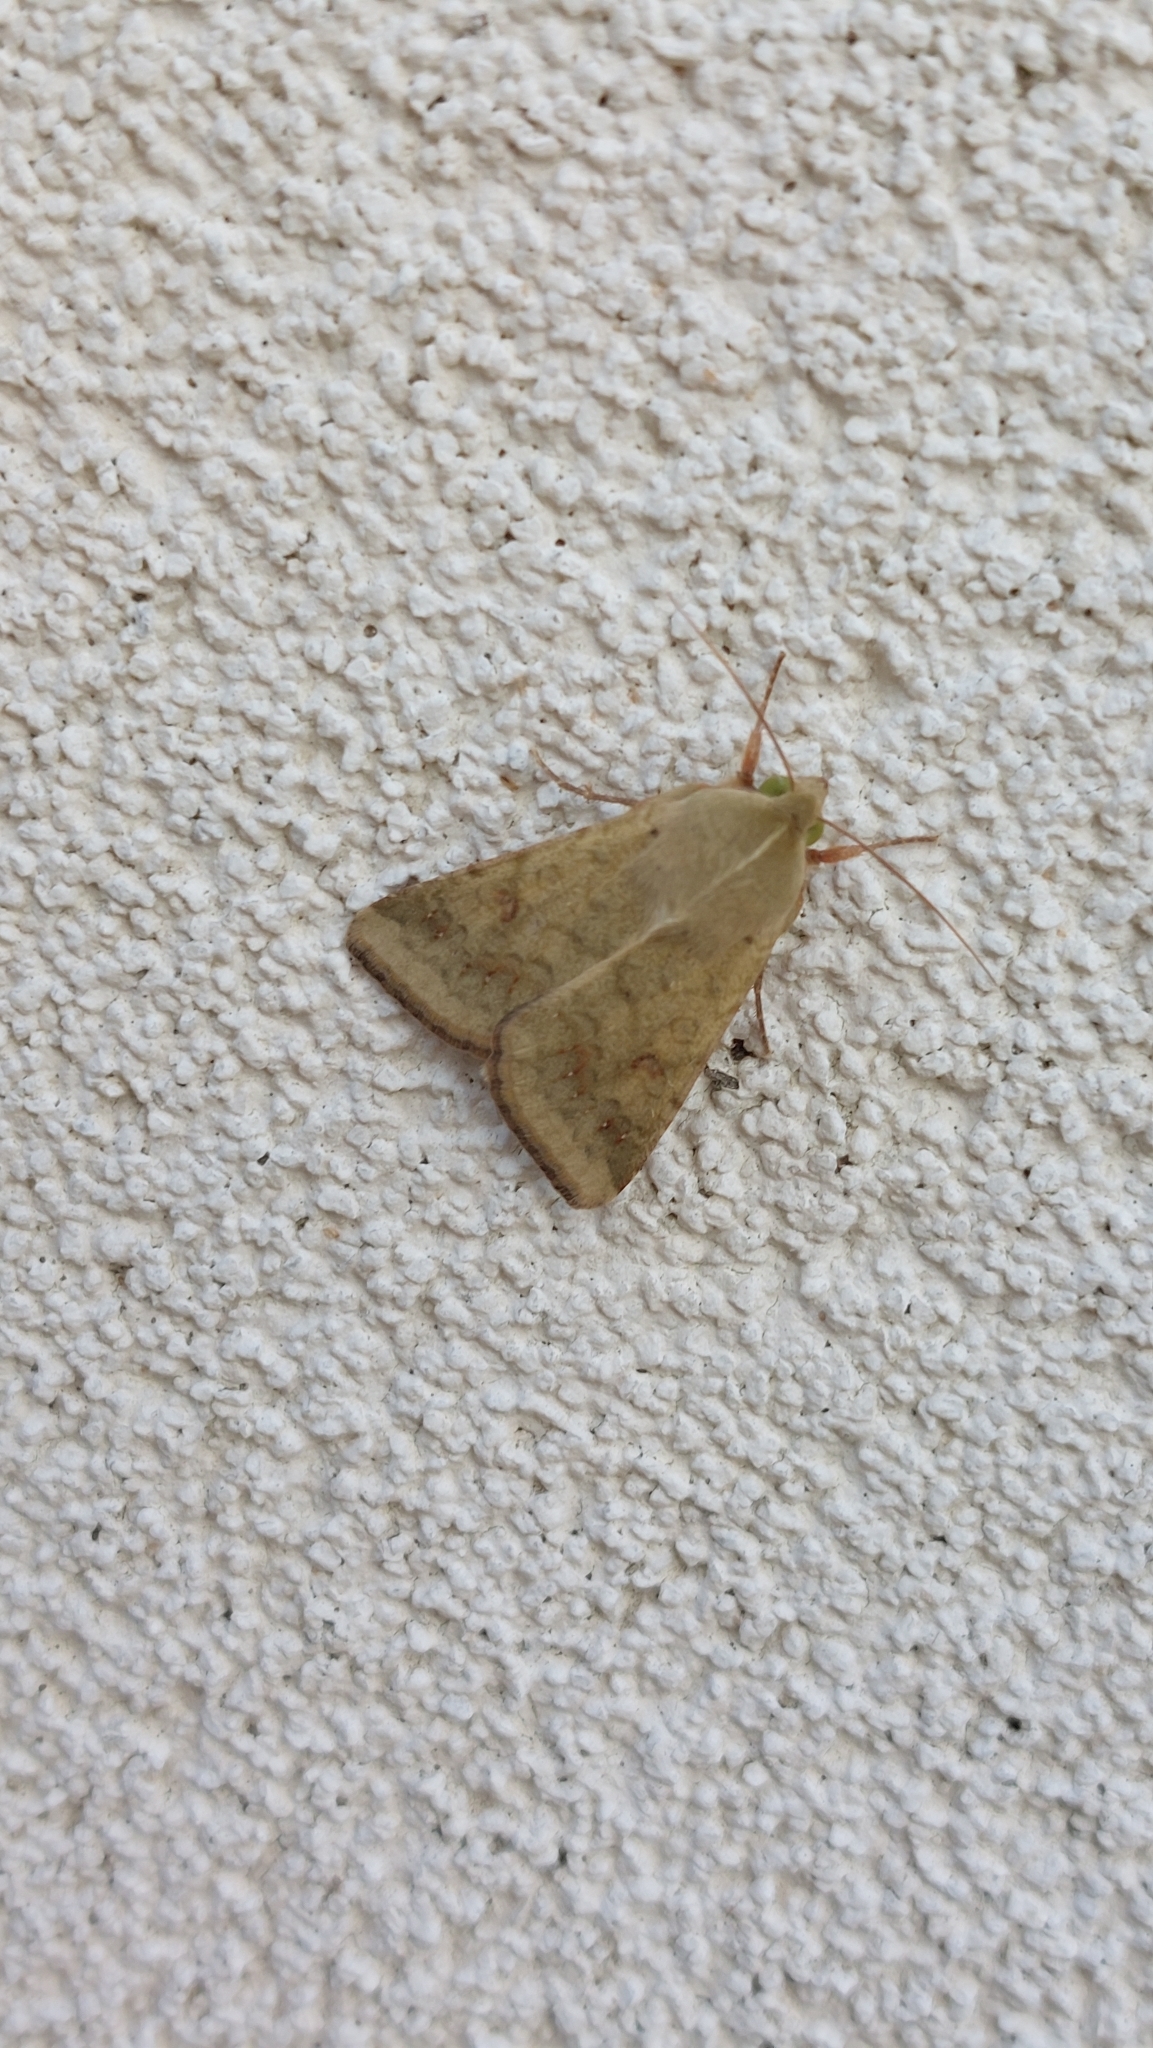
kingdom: Animalia
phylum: Arthropoda
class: Insecta
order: Lepidoptera
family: Noctuidae
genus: Helicoverpa
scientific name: Helicoverpa armigera
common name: Cotton bollworm
